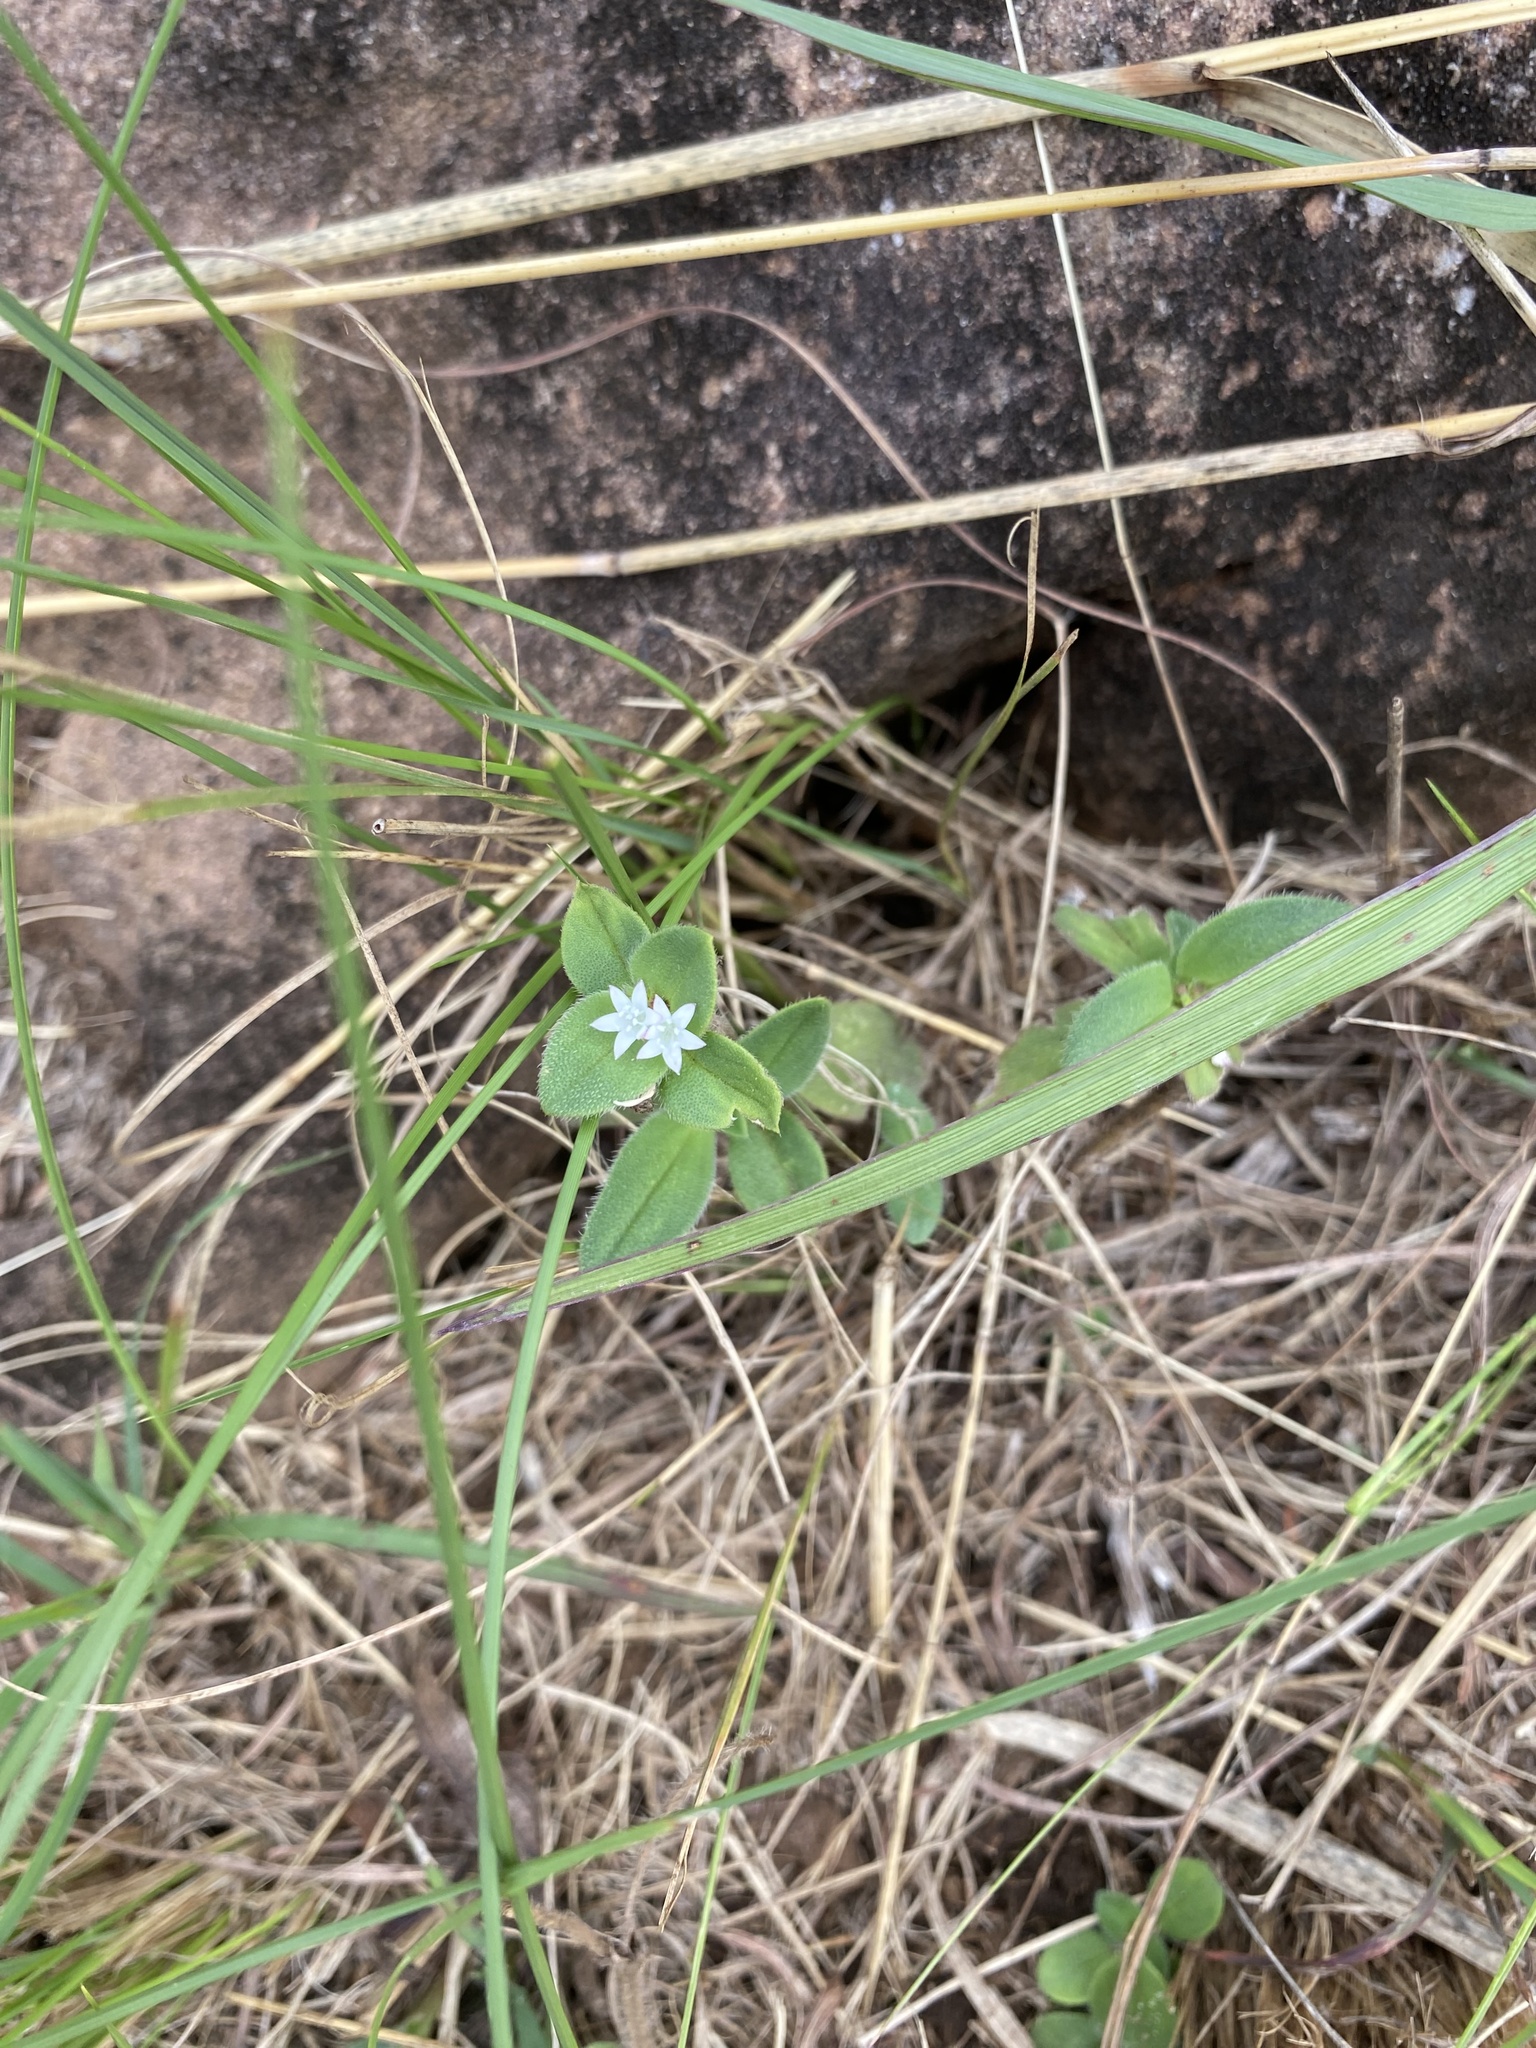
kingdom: Plantae
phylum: Tracheophyta
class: Magnoliopsida
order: Gentianales
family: Rubiaceae
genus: Richardia
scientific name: Richardia brasiliensis
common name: Tropical mexican clover
